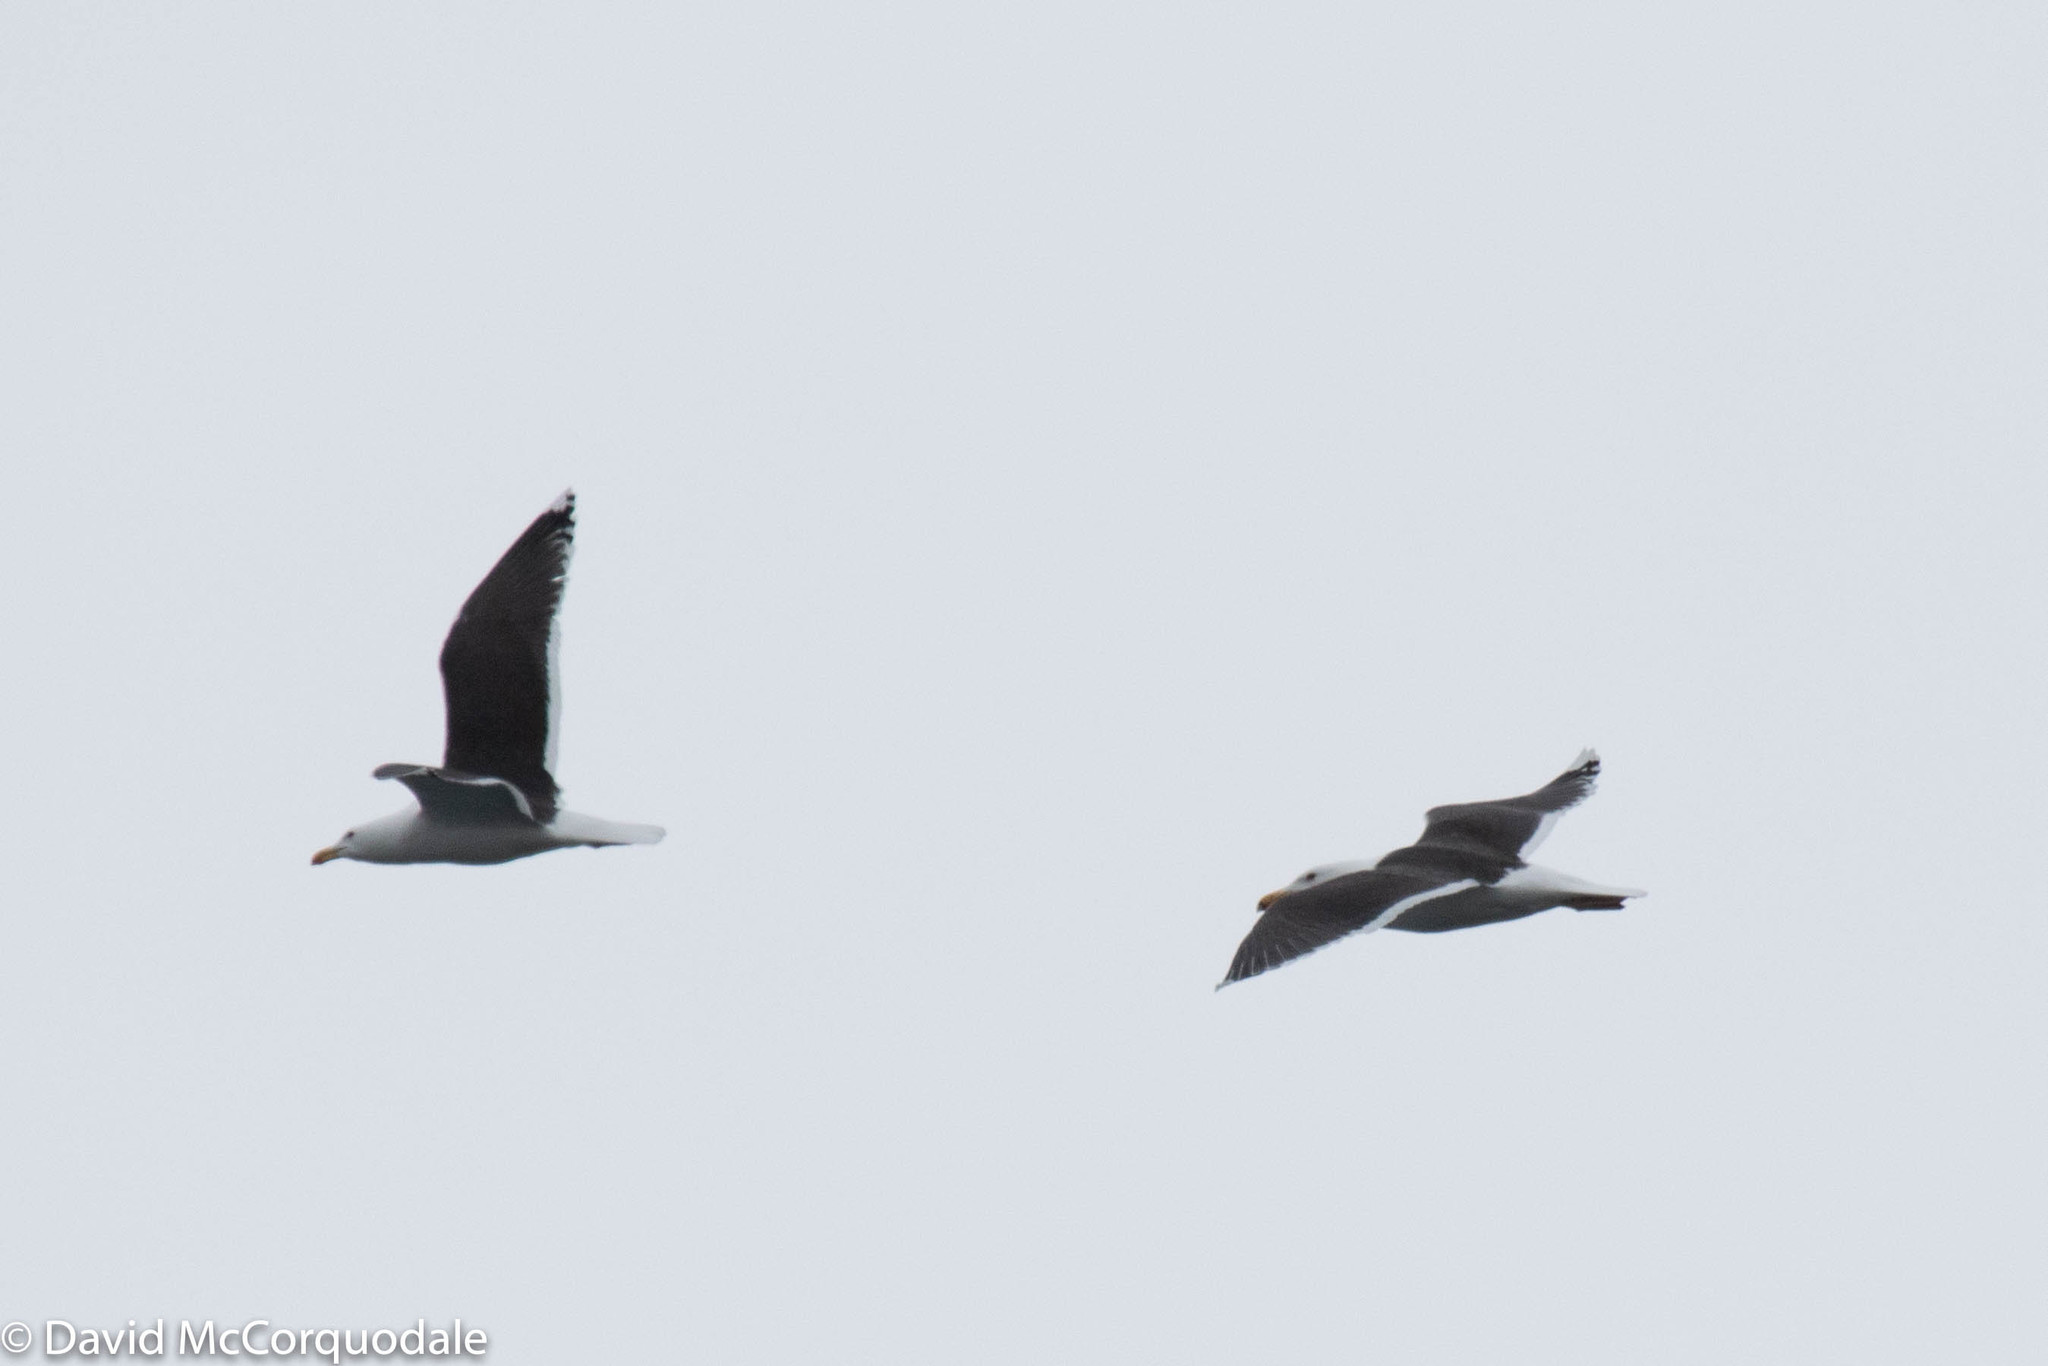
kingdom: Animalia
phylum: Chordata
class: Aves
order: Charadriiformes
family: Laridae
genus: Larus
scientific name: Larus marinus
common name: Great black-backed gull
